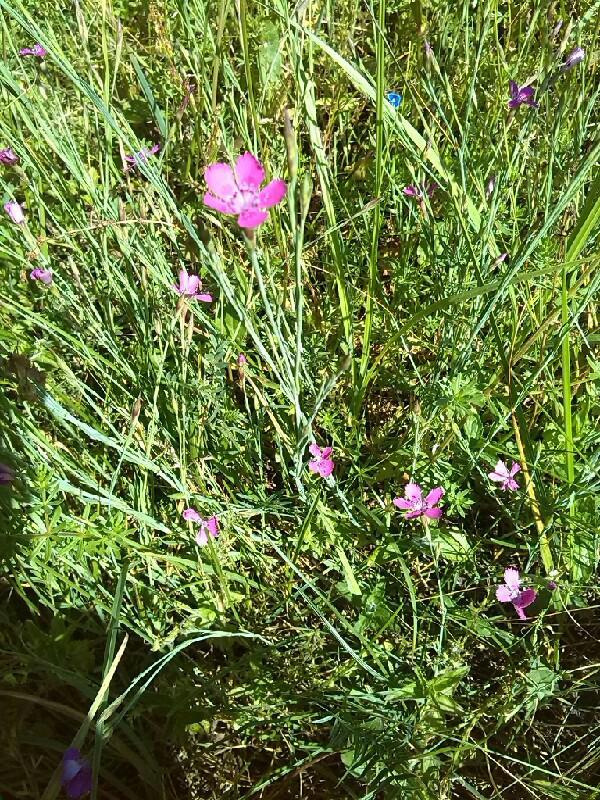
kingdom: Plantae
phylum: Tracheophyta
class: Magnoliopsida
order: Caryophyllales
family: Caryophyllaceae
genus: Dianthus
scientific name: Dianthus deltoides
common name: Maiden pink
